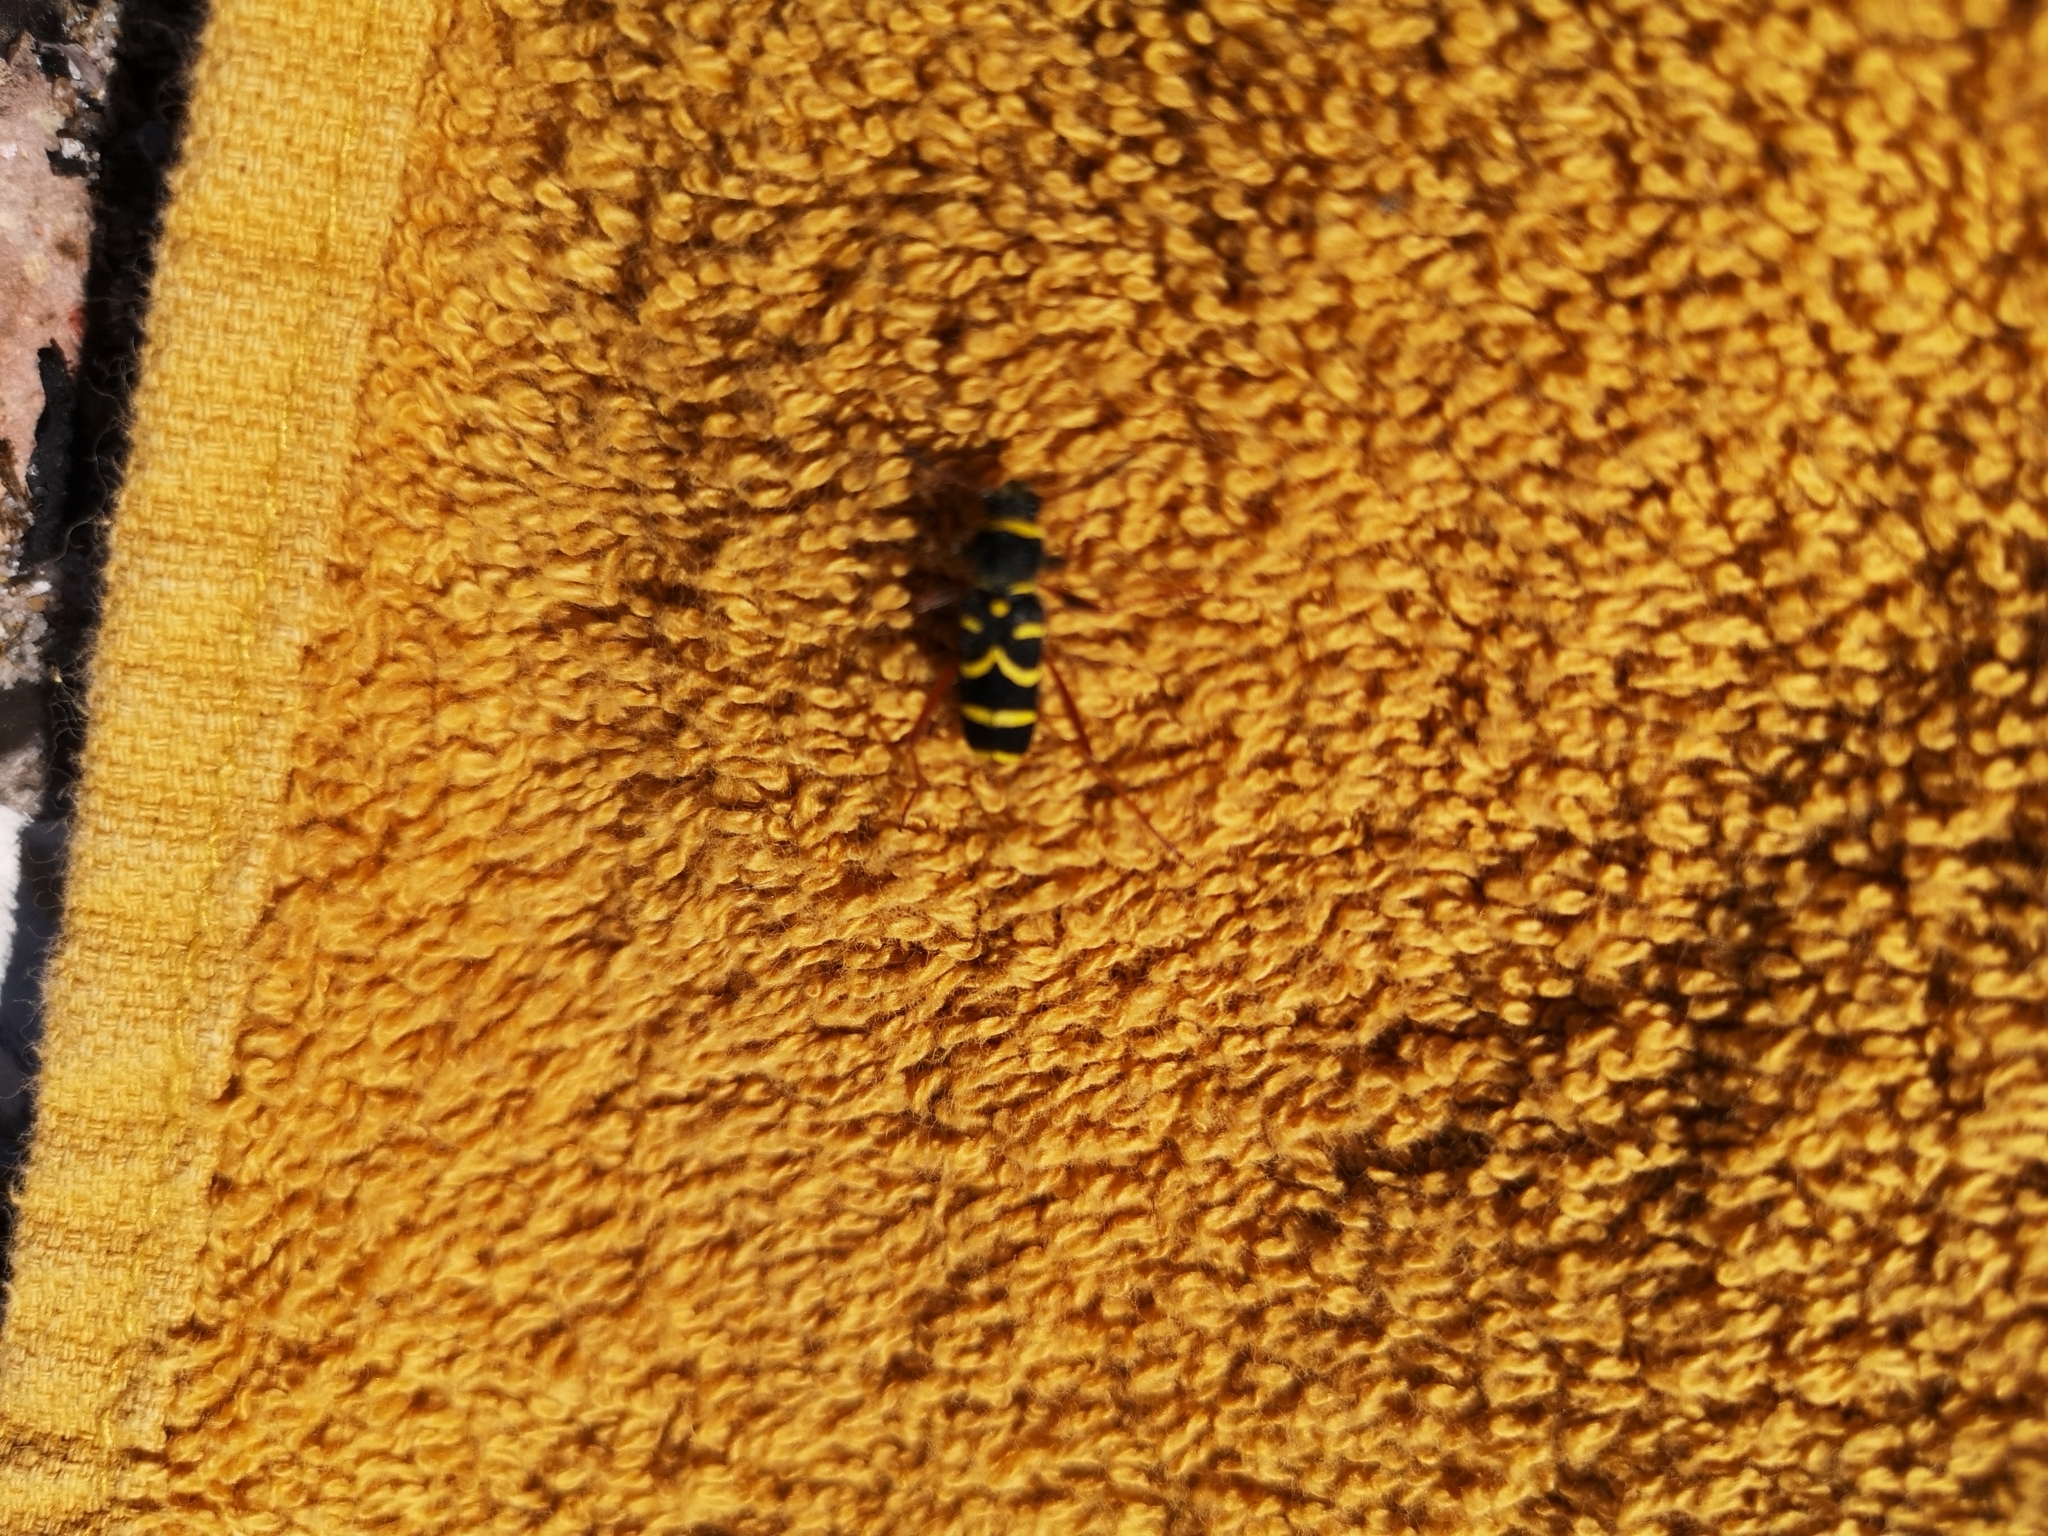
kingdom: Animalia
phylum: Arthropoda
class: Insecta
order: Coleoptera
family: Cerambycidae
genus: Clytus
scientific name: Clytus arietis
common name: Wasp beetle
